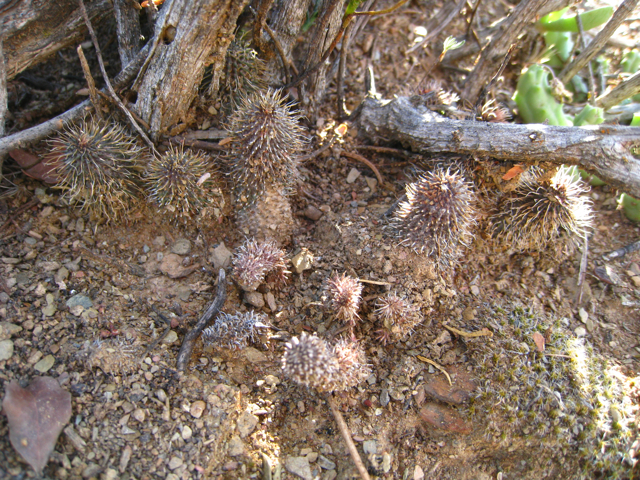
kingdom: Plantae
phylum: Tracheophyta
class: Magnoliopsida
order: Gentianales
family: Apocynaceae
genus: Ceropegia
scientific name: Ceropegia pillansii
